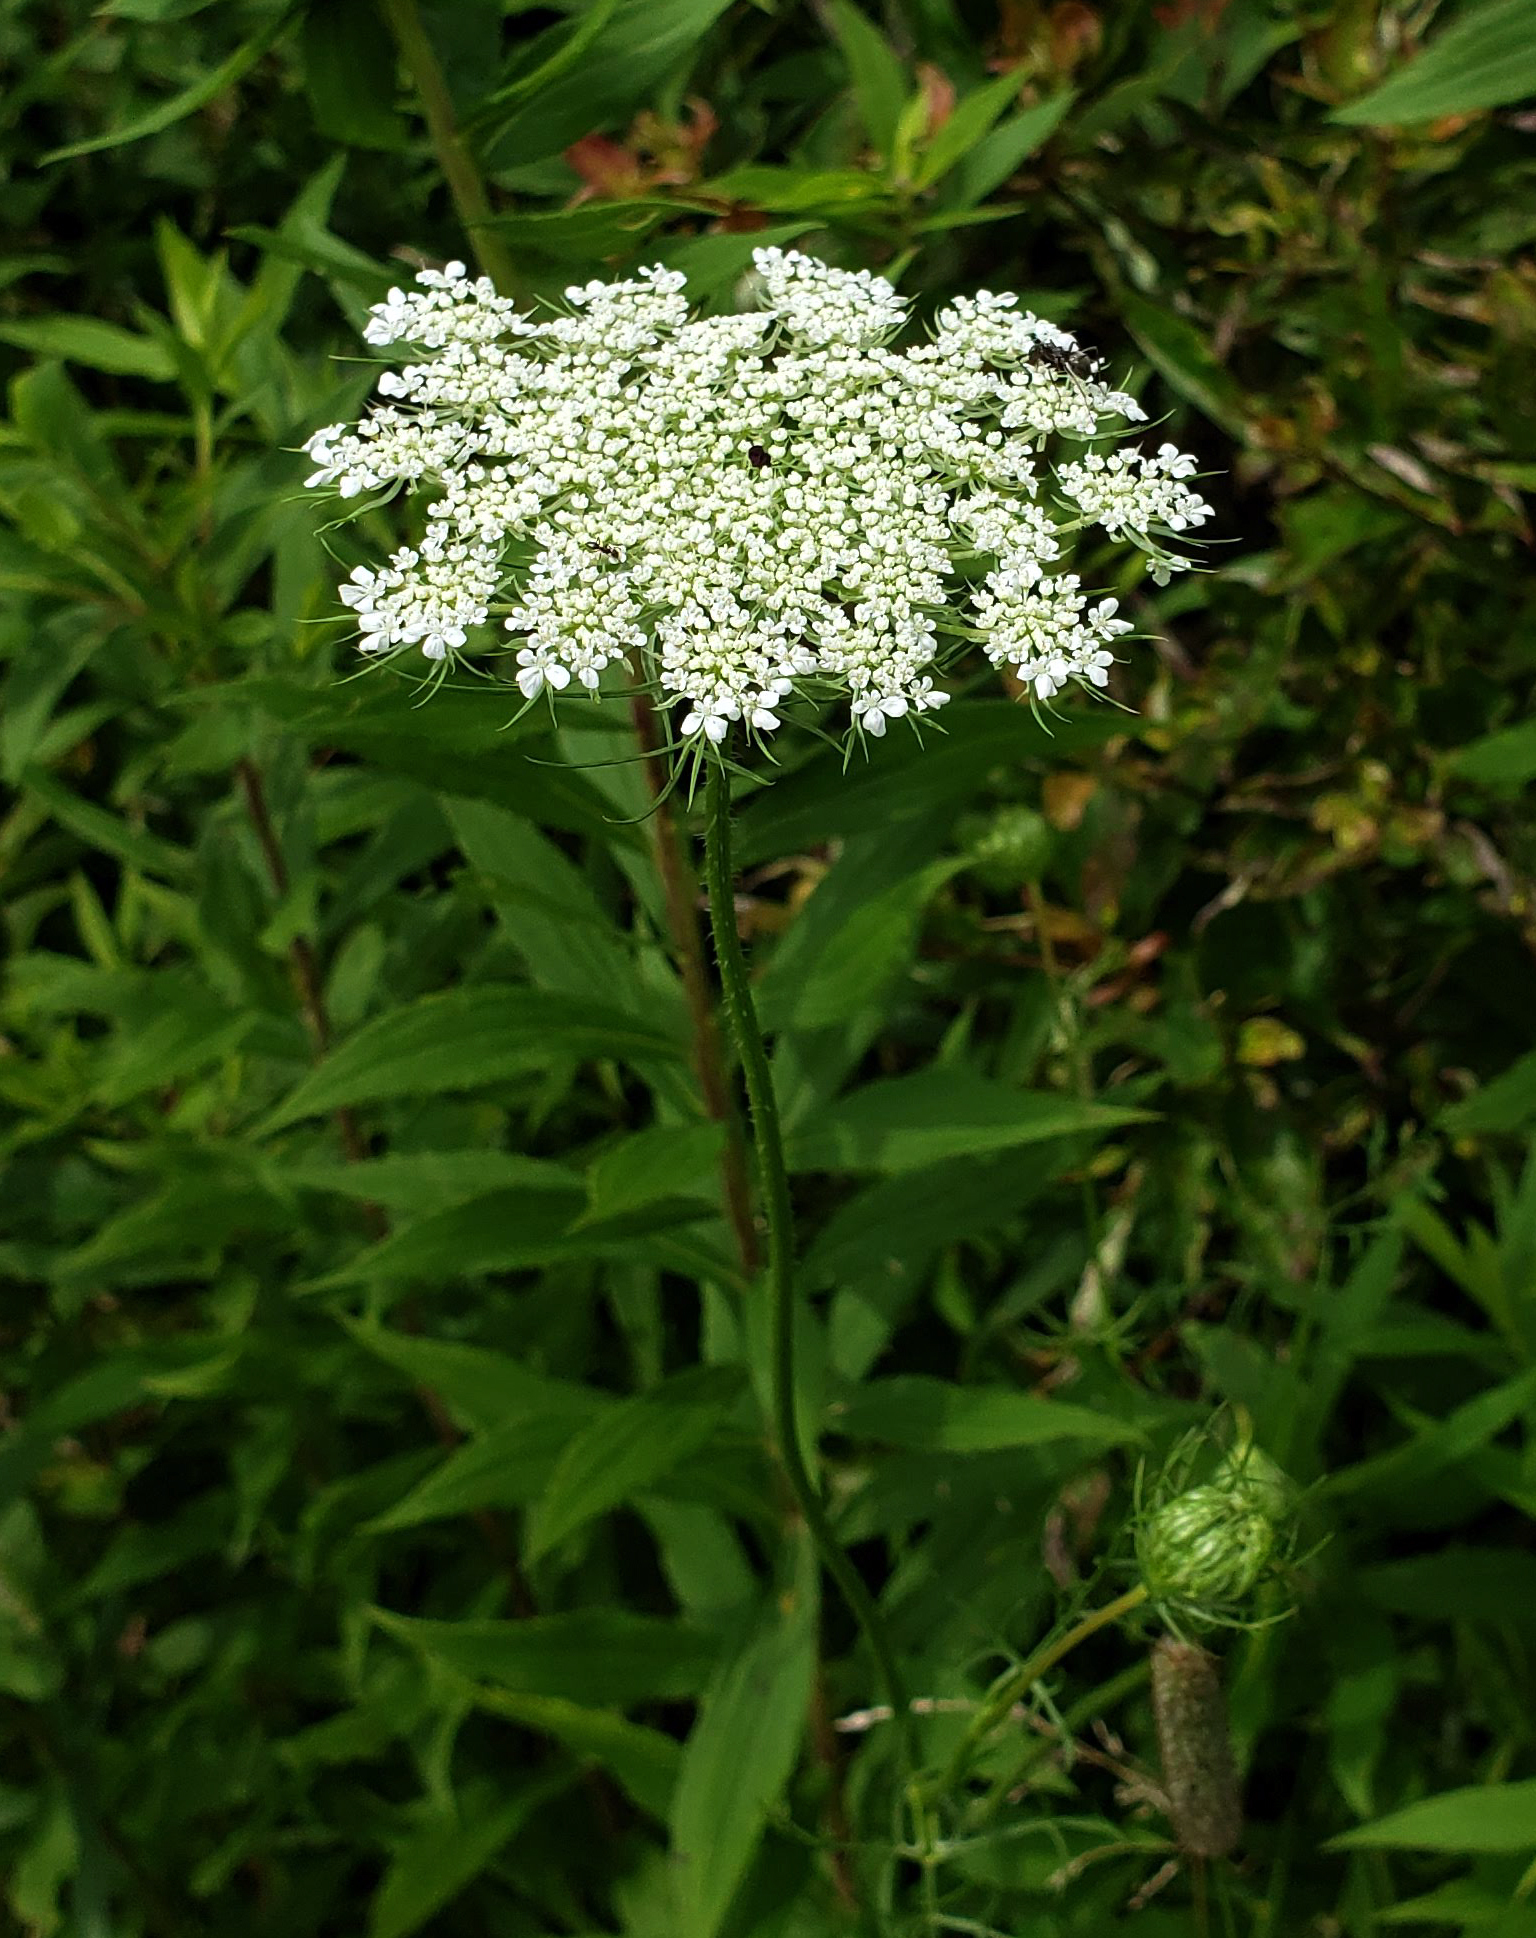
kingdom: Plantae
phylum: Tracheophyta
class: Magnoliopsida
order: Apiales
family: Apiaceae
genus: Daucus
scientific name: Daucus carota
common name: Wild carrot
